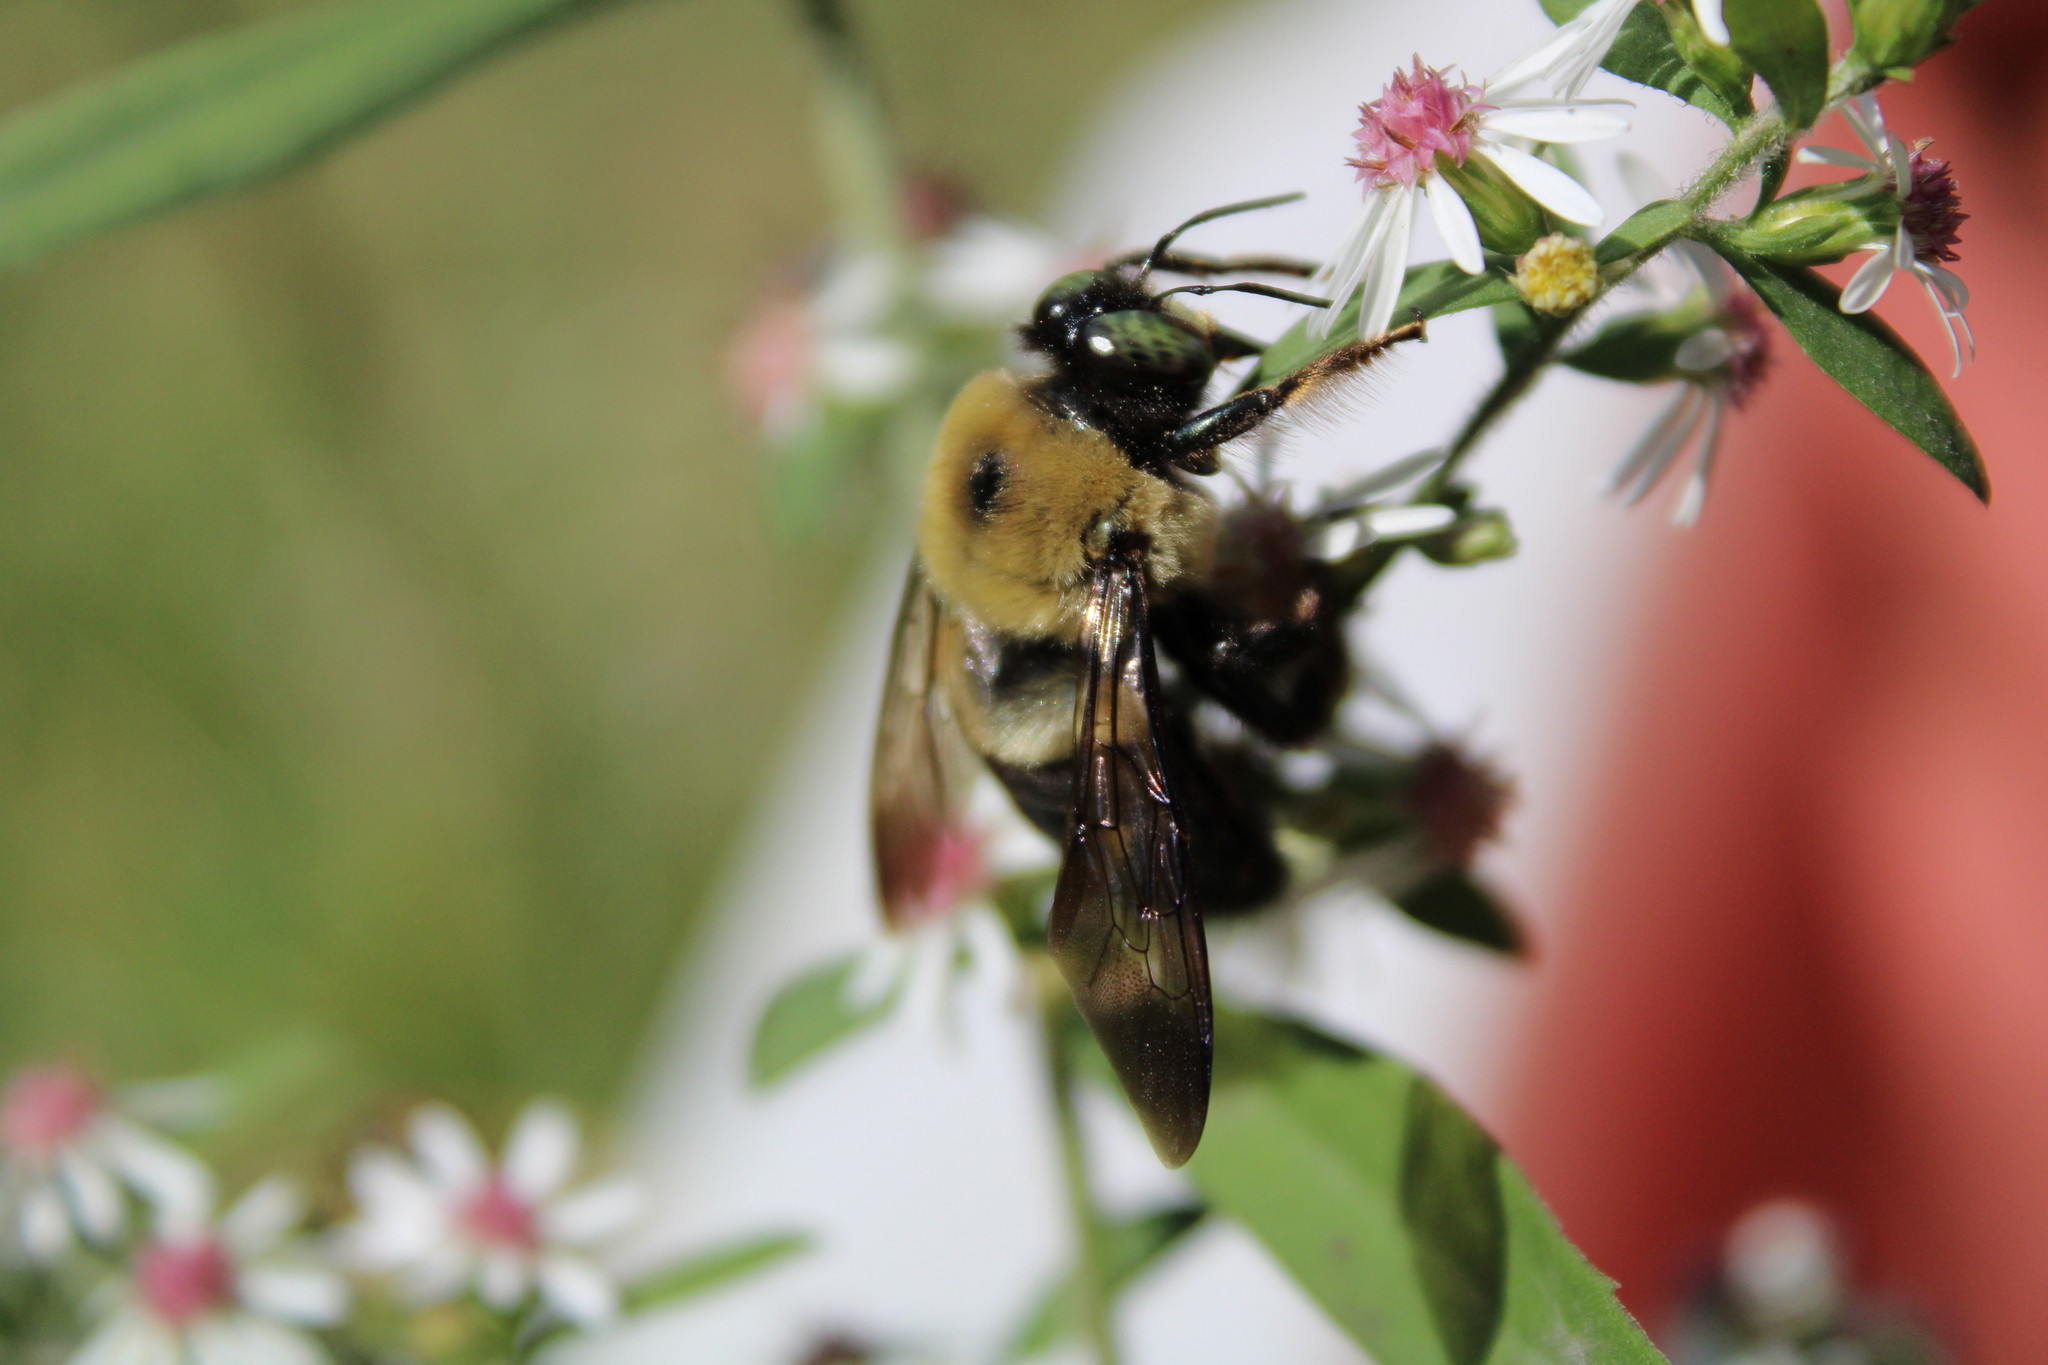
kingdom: Animalia
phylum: Arthropoda
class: Insecta
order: Hymenoptera
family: Apidae
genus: Xylocopa
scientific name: Xylocopa virginica
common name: Carpenter bee
